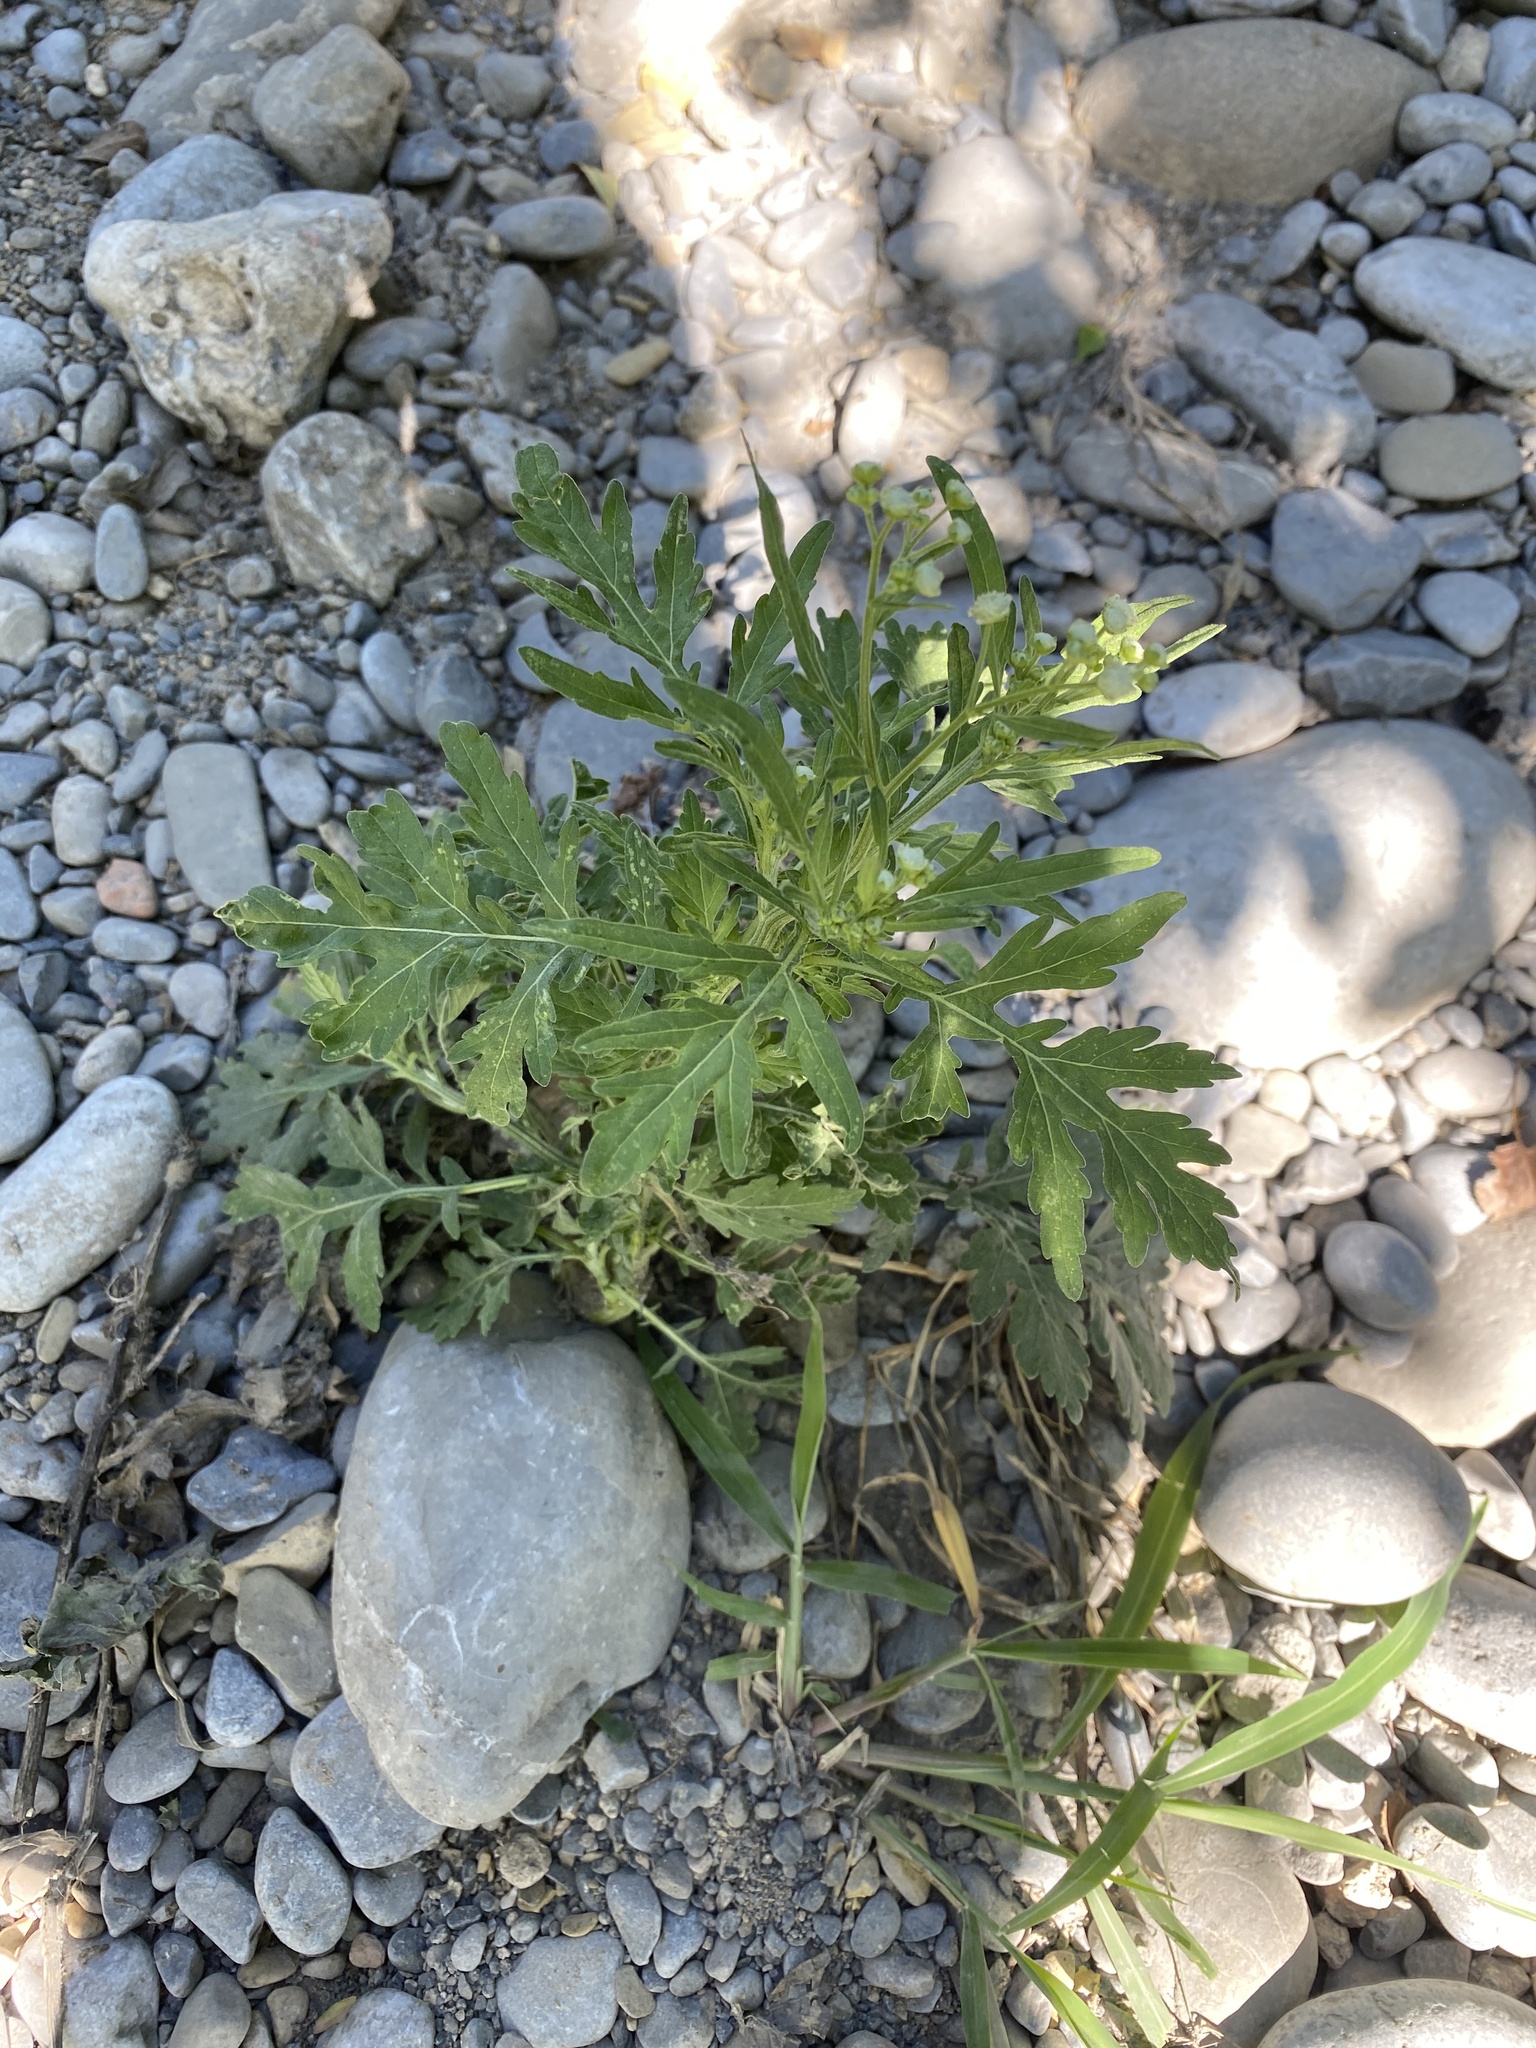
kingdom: Plantae
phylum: Tracheophyta
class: Magnoliopsida
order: Asterales
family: Asteraceae
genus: Parthenium
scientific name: Parthenium hysterophorus
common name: Santa maria feverfew
